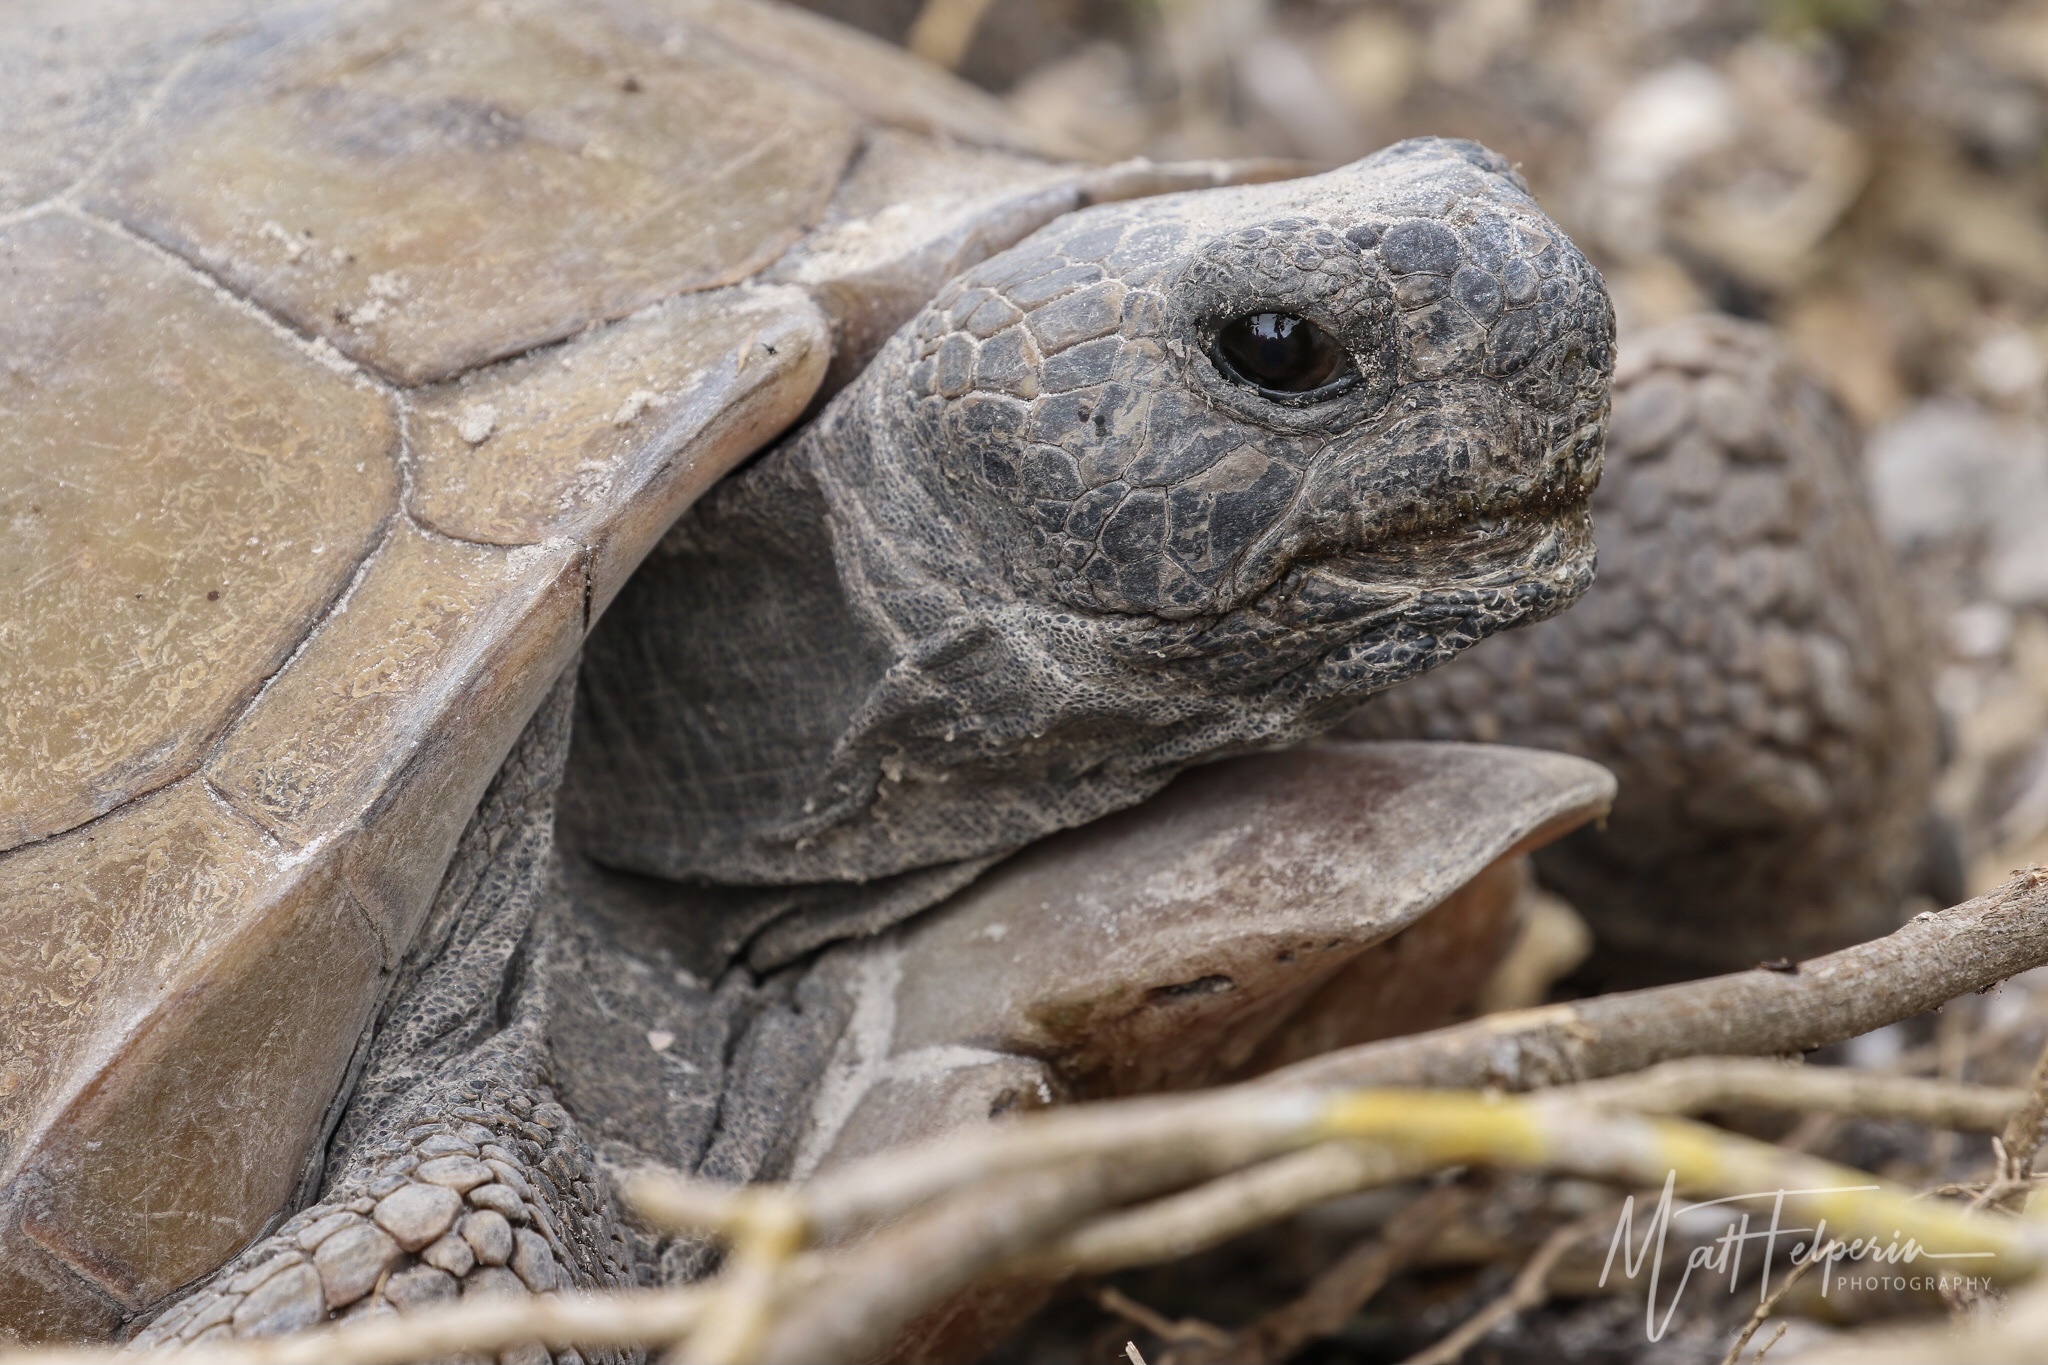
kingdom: Animalia
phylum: Chordata
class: Testudines
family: Testudinidae
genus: Gopherus
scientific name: Gopherus polyphemus
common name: Florida gopher tortoise
